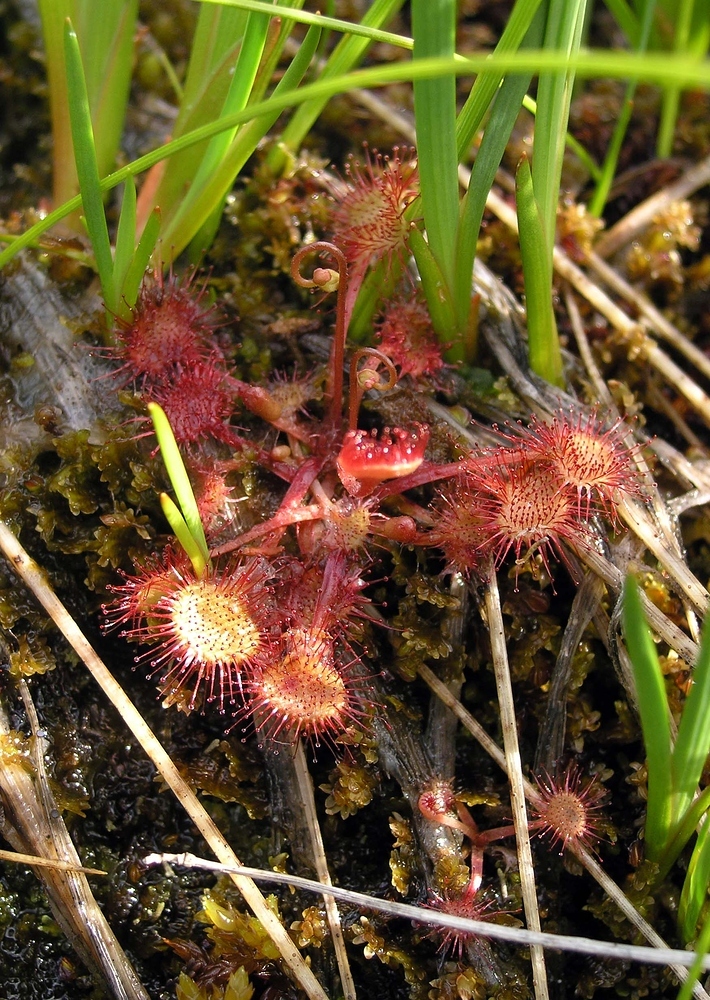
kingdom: Plantae
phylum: Tracheophyta
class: Magnoliopsida
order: Caryophyllales
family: Droseraceae
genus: Drosera
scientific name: Drosera rotundifolia
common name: Round-leaved sundew
